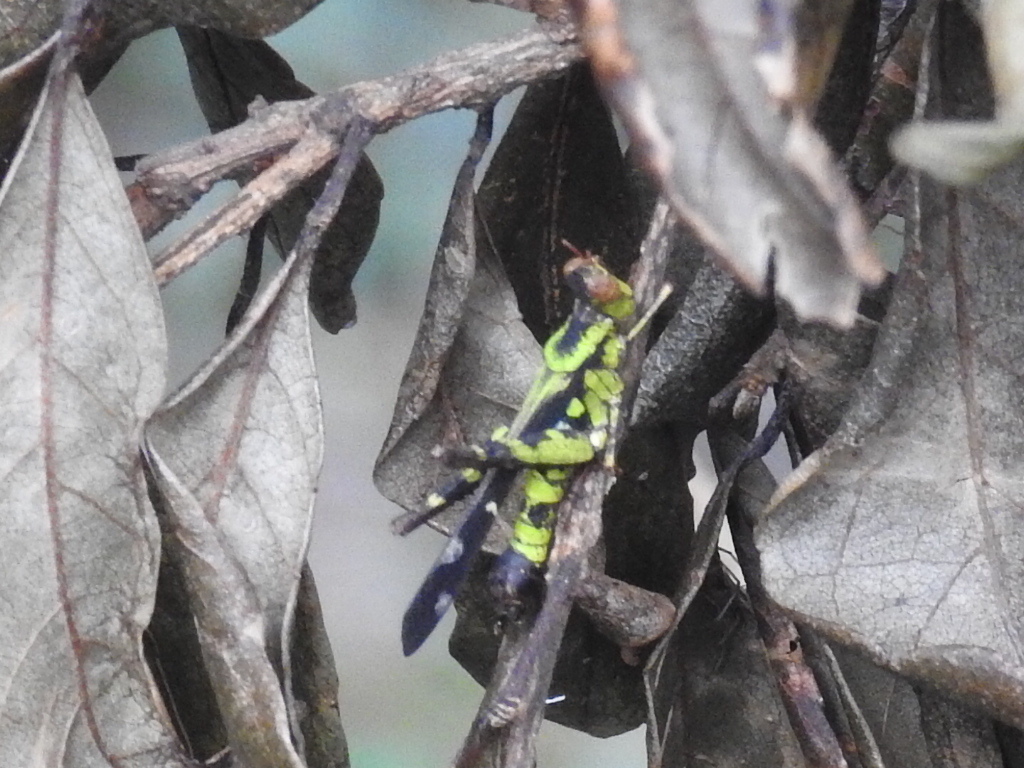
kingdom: Animalia
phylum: Arthropoda
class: Insecta
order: Orthoptera
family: Chorotypidae
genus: Erianthus
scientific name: Erianthus dohrni
